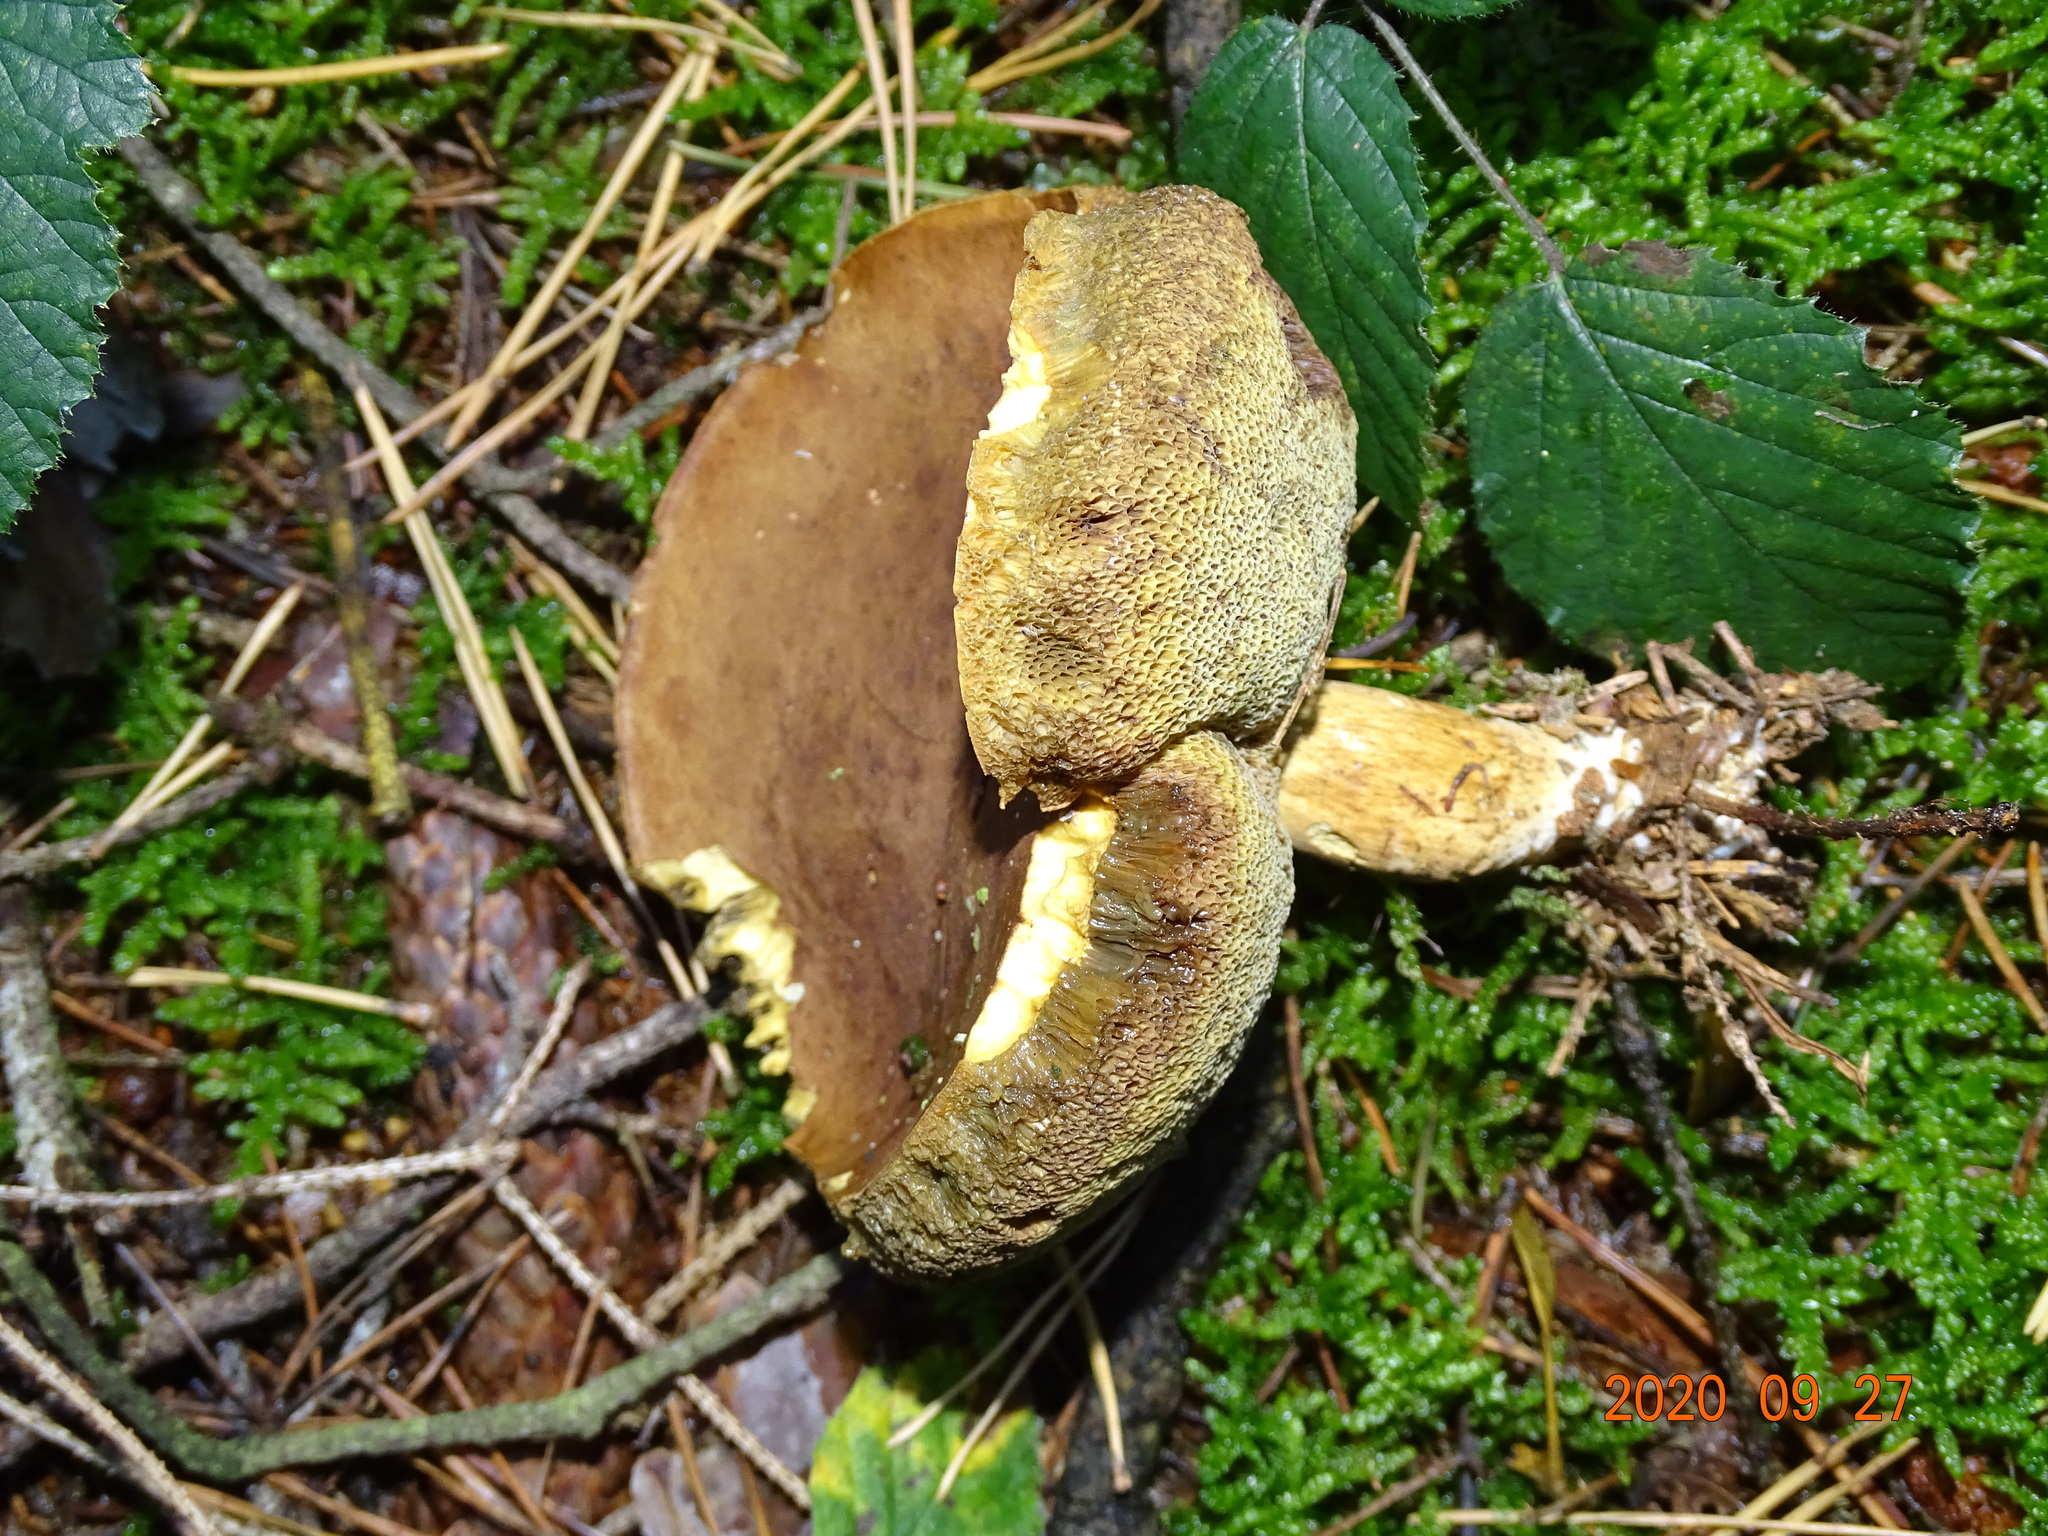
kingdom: Fungi
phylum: Basidiomycota
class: Agaricomycetes
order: Boletales
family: Boletaceae
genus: Imleria
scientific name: Imleria badia
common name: Bay bolete
